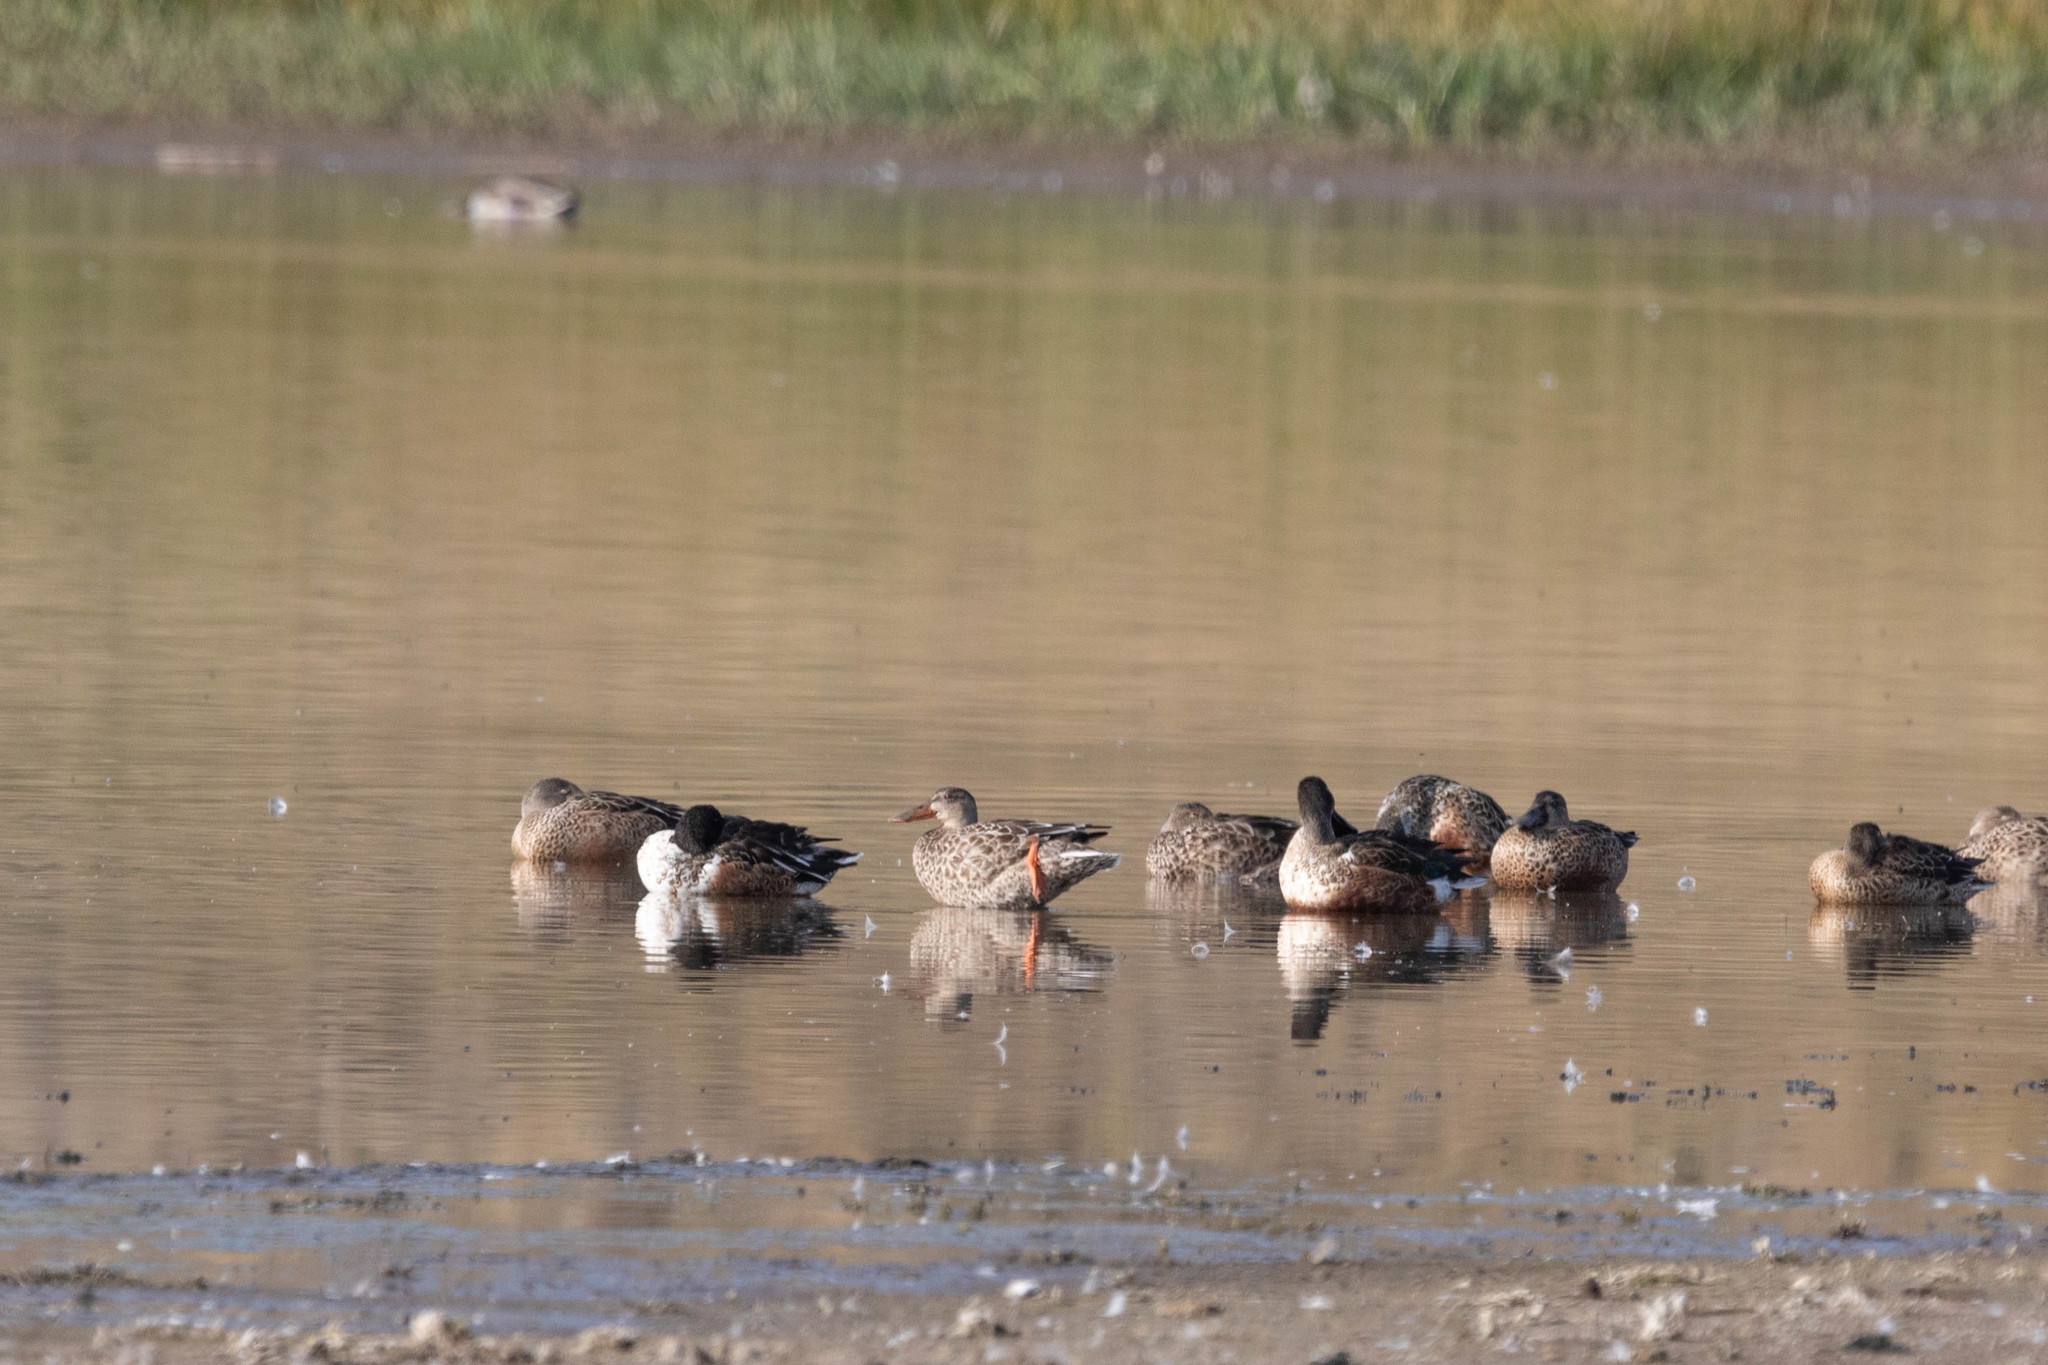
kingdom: Animalia
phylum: Chordata
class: Aves
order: Anseriformes
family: Anatidae
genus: Spatula
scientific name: Spatula clypeata
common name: Northern shoveler
